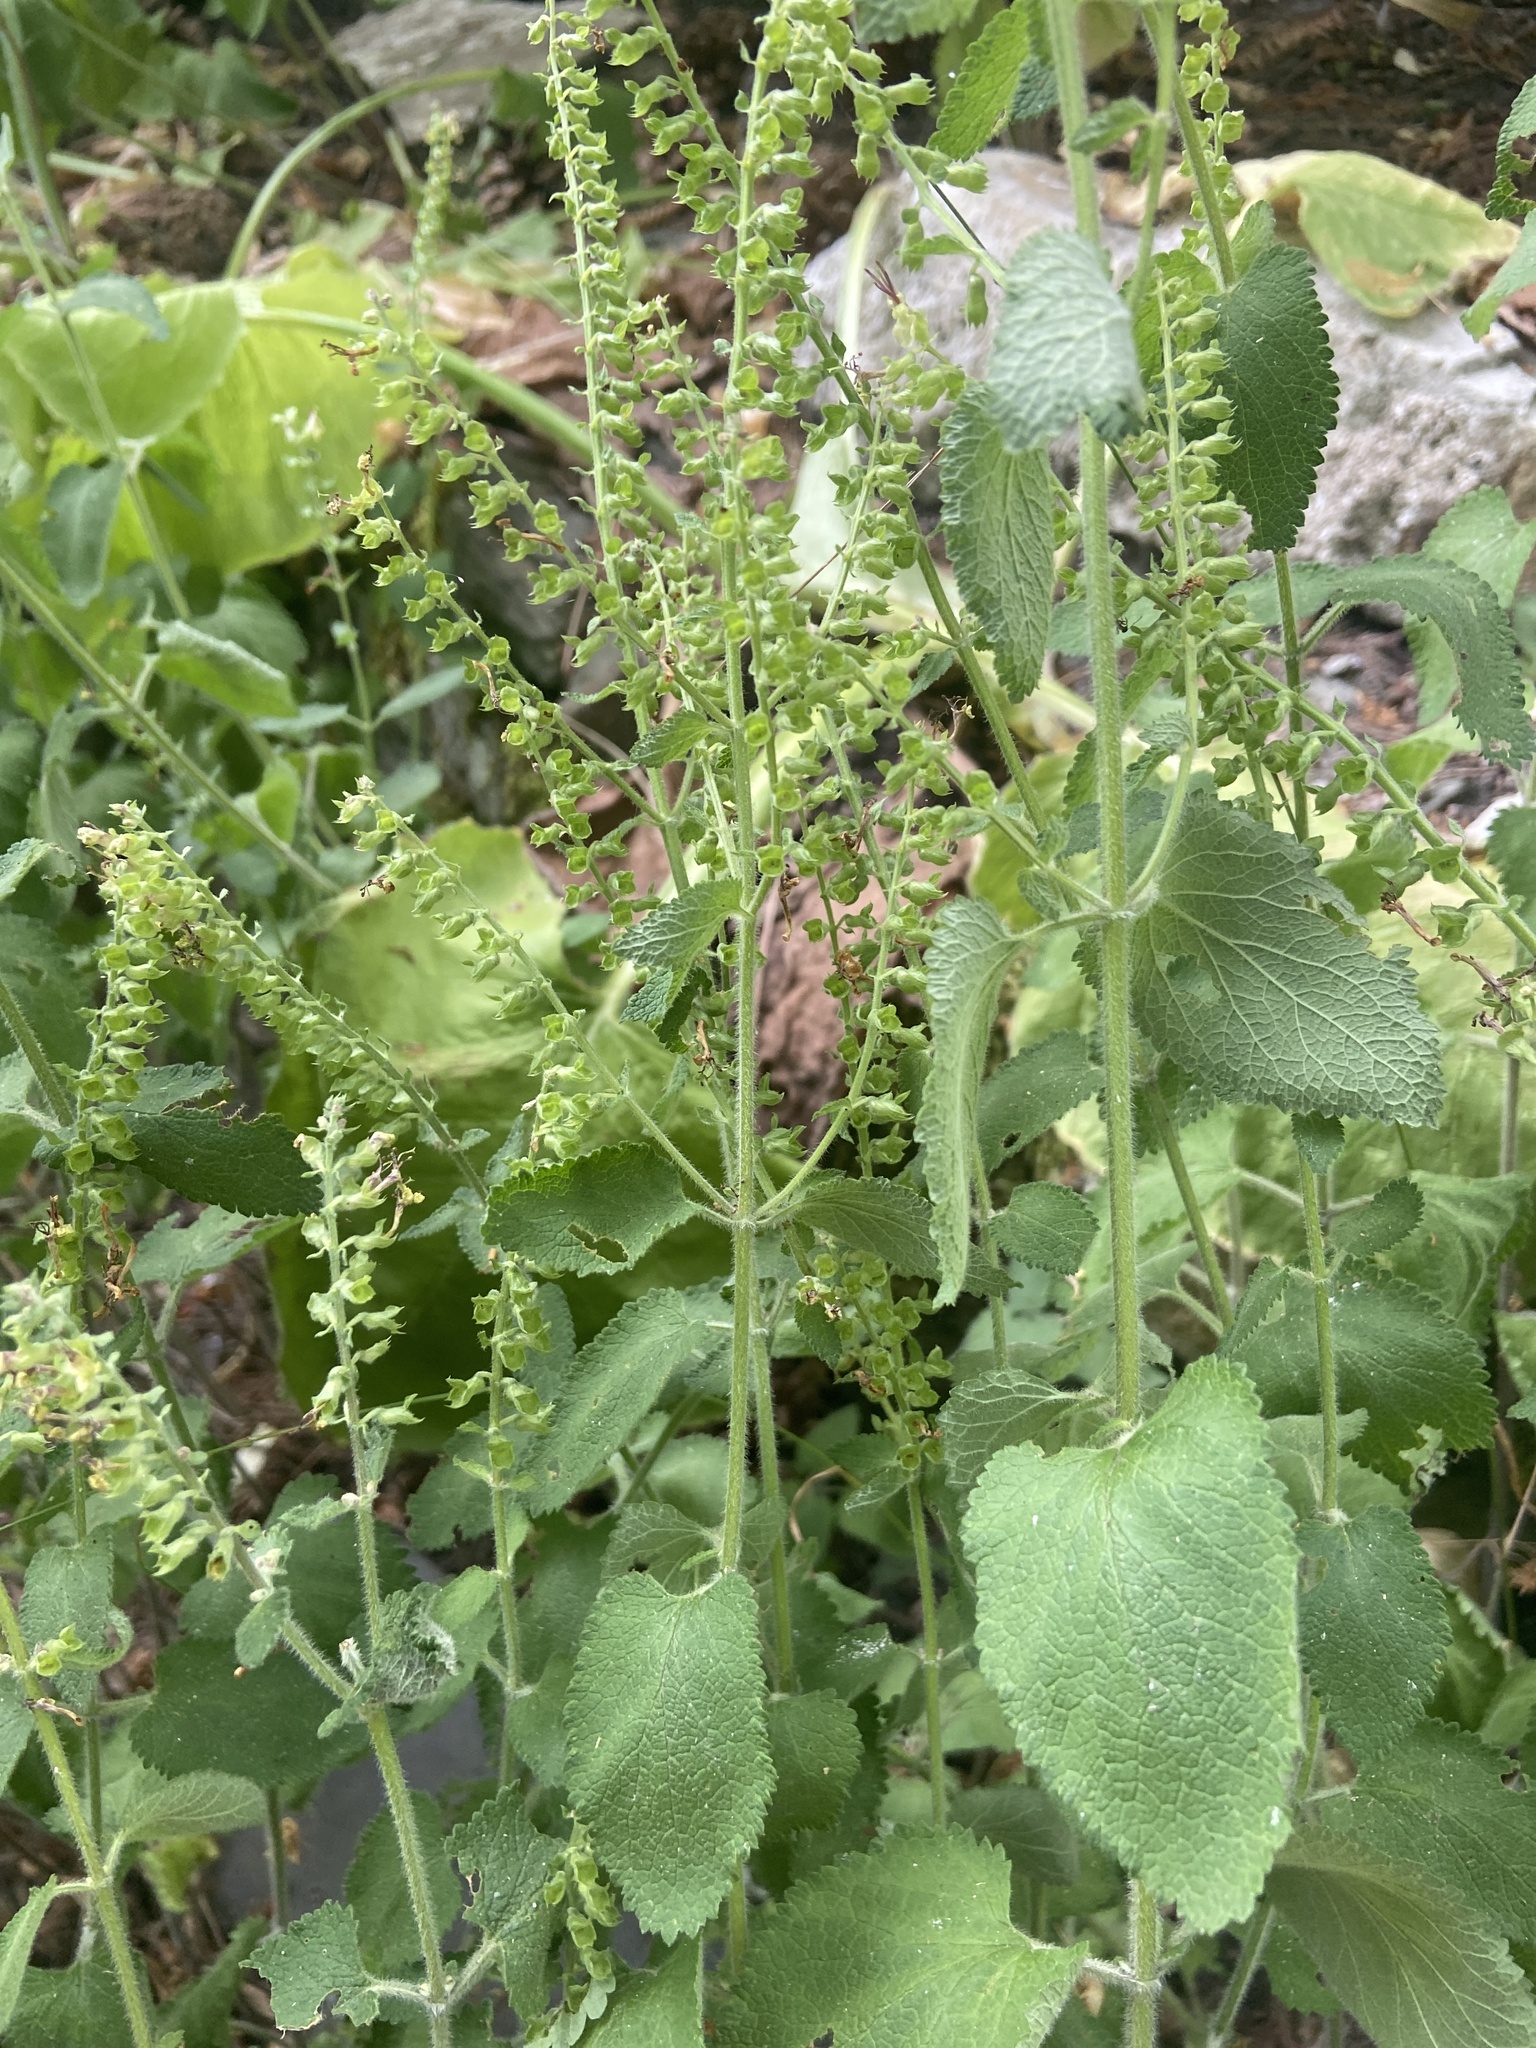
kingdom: Plantae
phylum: Tracheophyta
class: Magnoliopsida
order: Lamiales
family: Lamiaceae
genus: Scutellaria
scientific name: Scutellaria altissima
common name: Somerset skullcap
